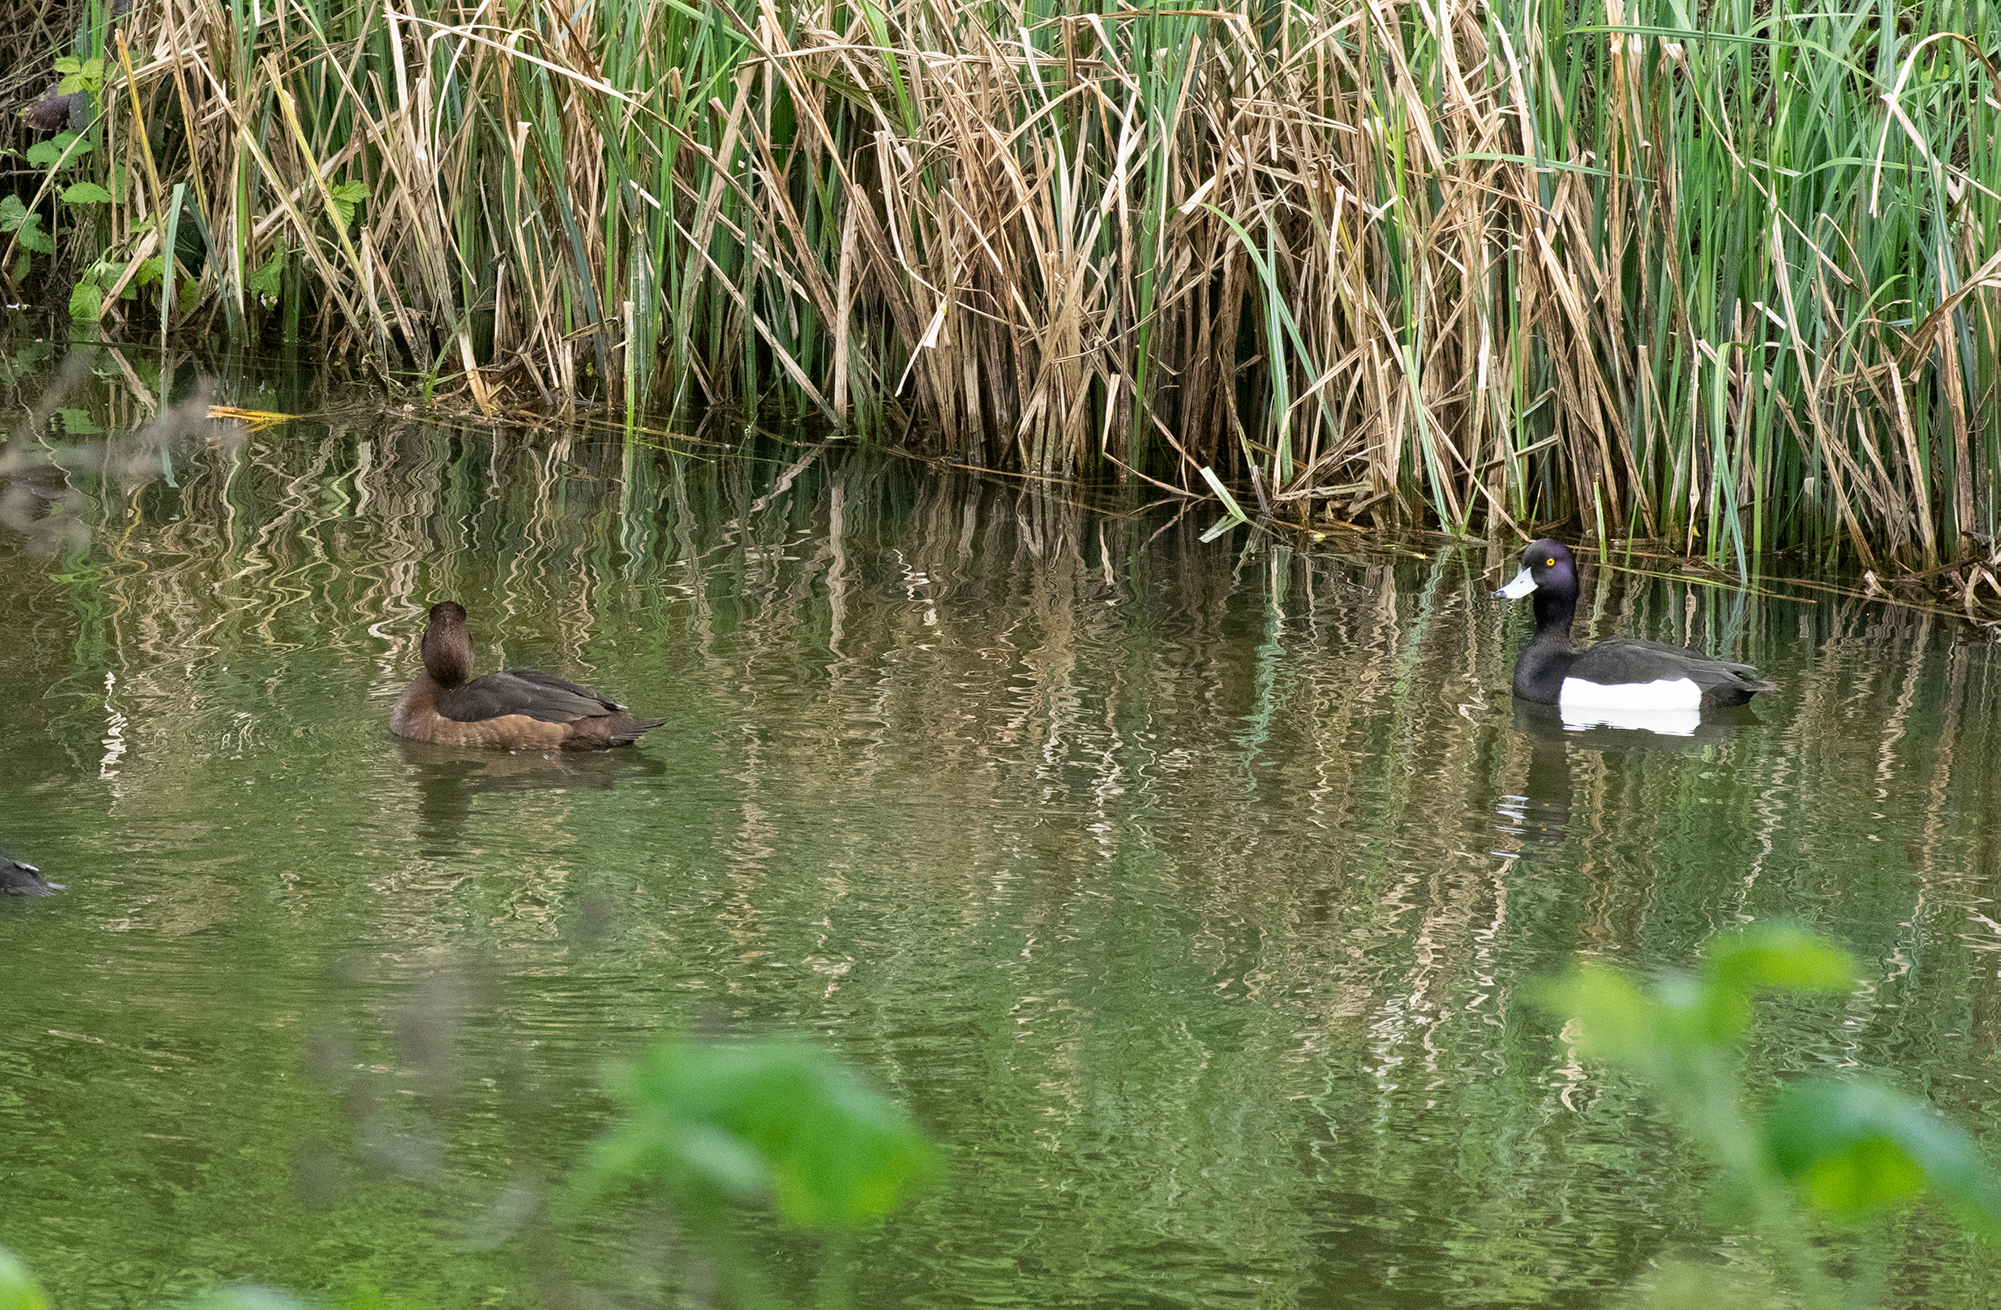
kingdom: Animalia
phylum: Chordata
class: Aves
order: Anseriformes
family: Anatidae
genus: Aythya
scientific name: Aythya fuligula
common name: Tufted duck
